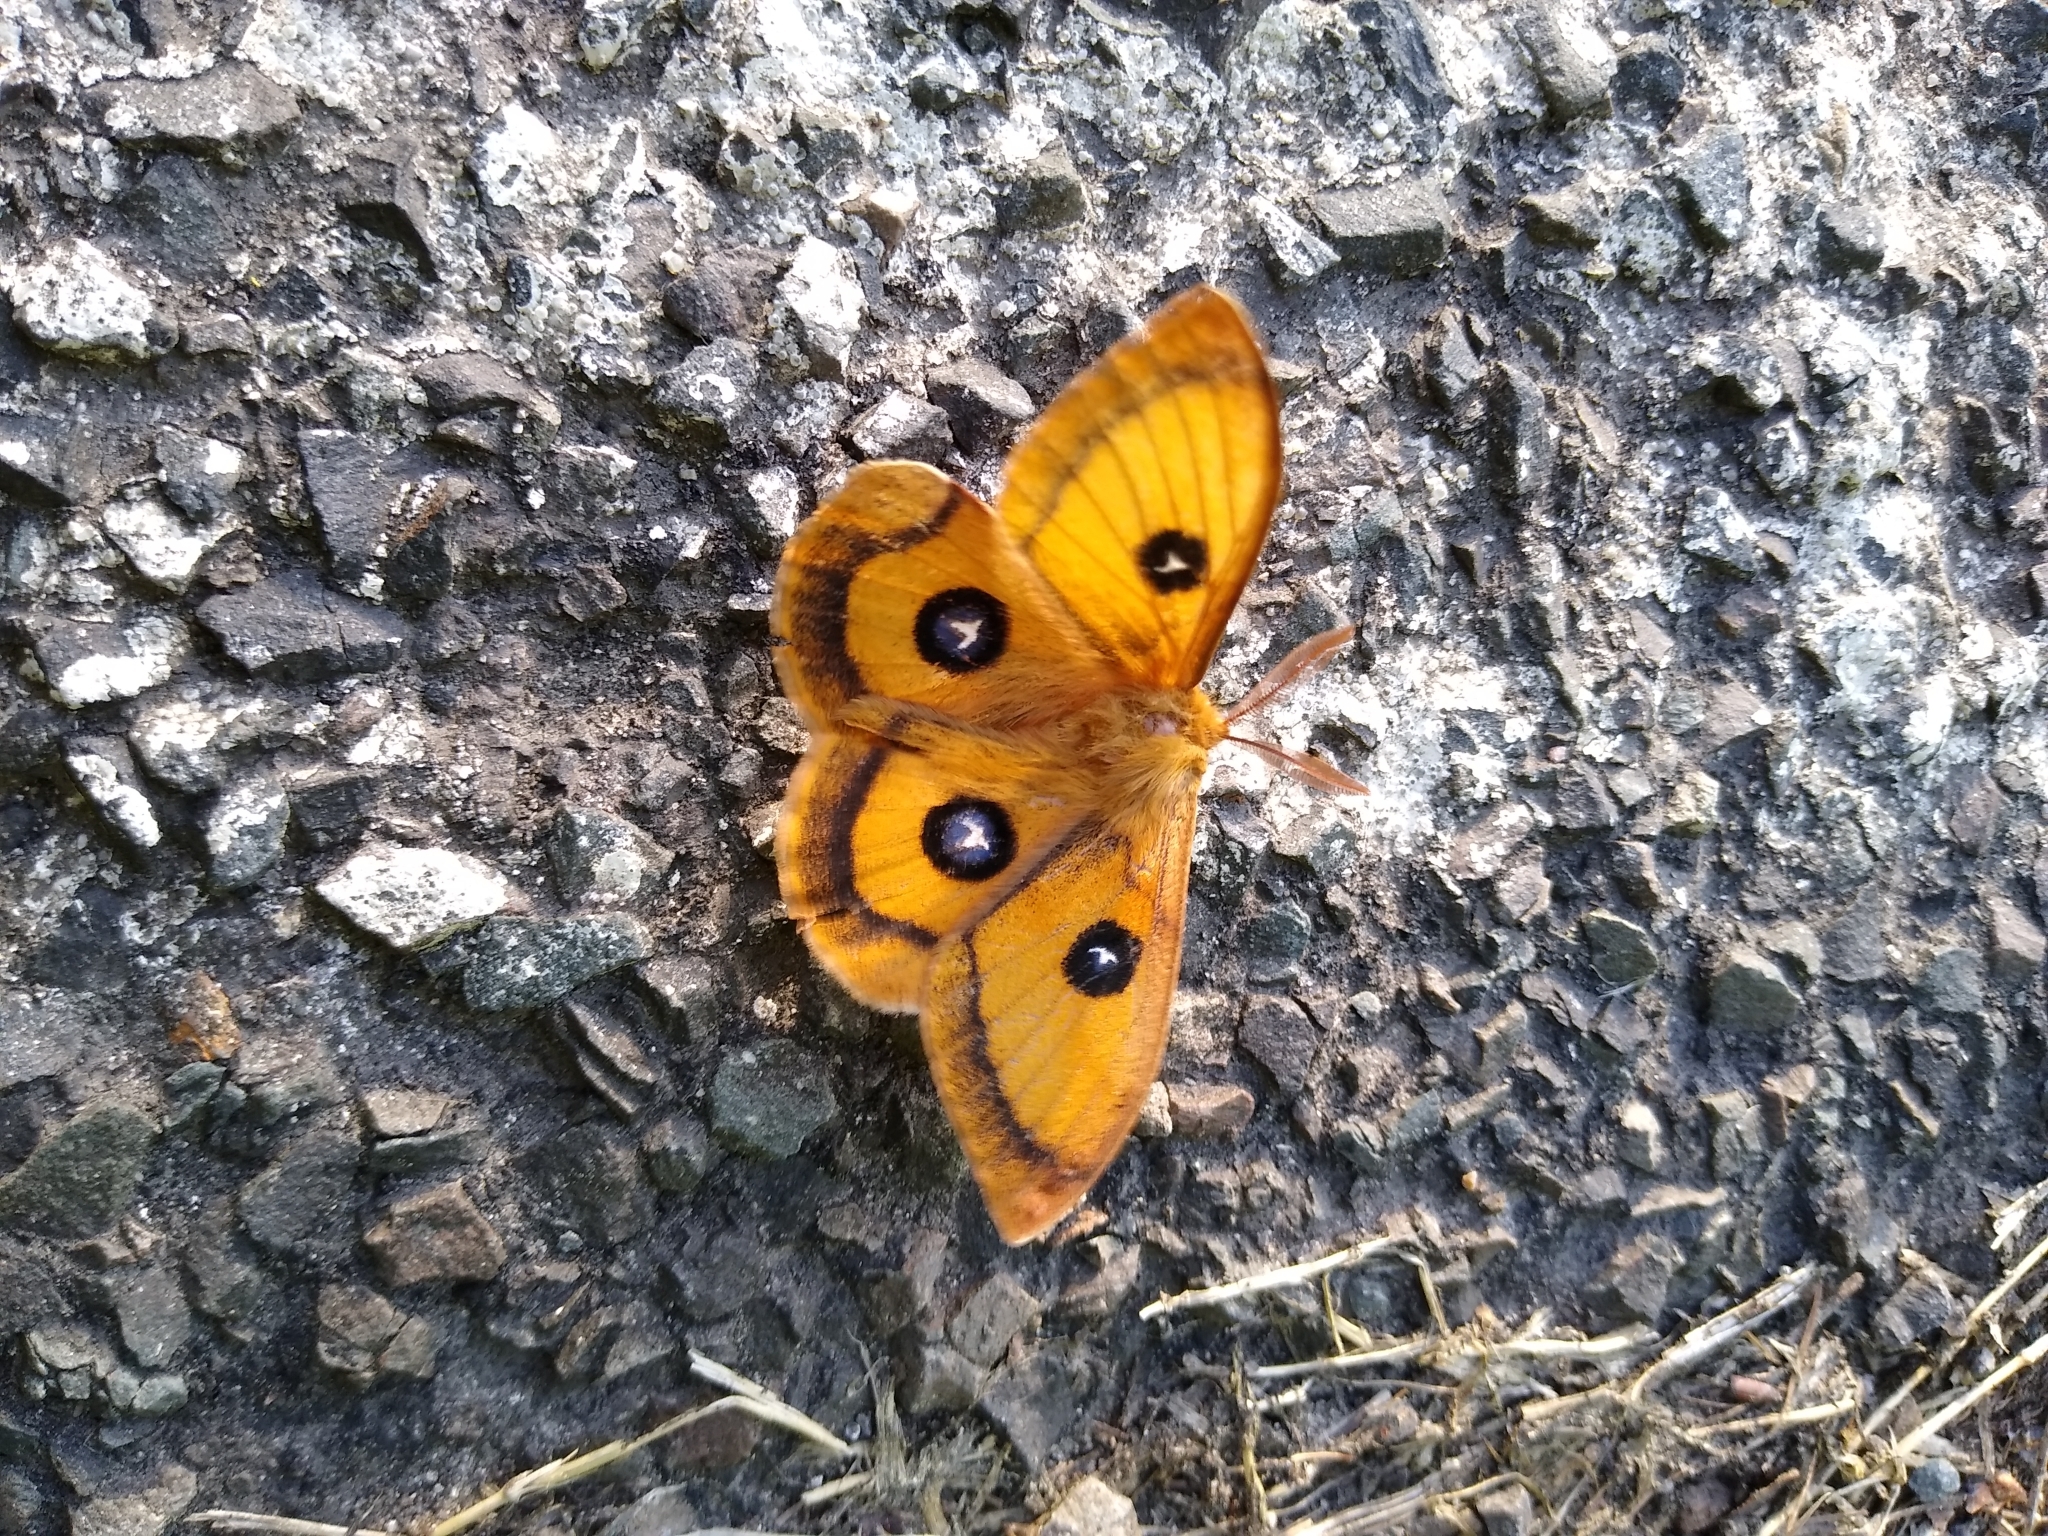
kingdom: Animalia
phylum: Arthropoda
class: Insecta
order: Lepidoptera
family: Saturniidae
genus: Aglia
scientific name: Aglia tau
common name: Tau emperor
